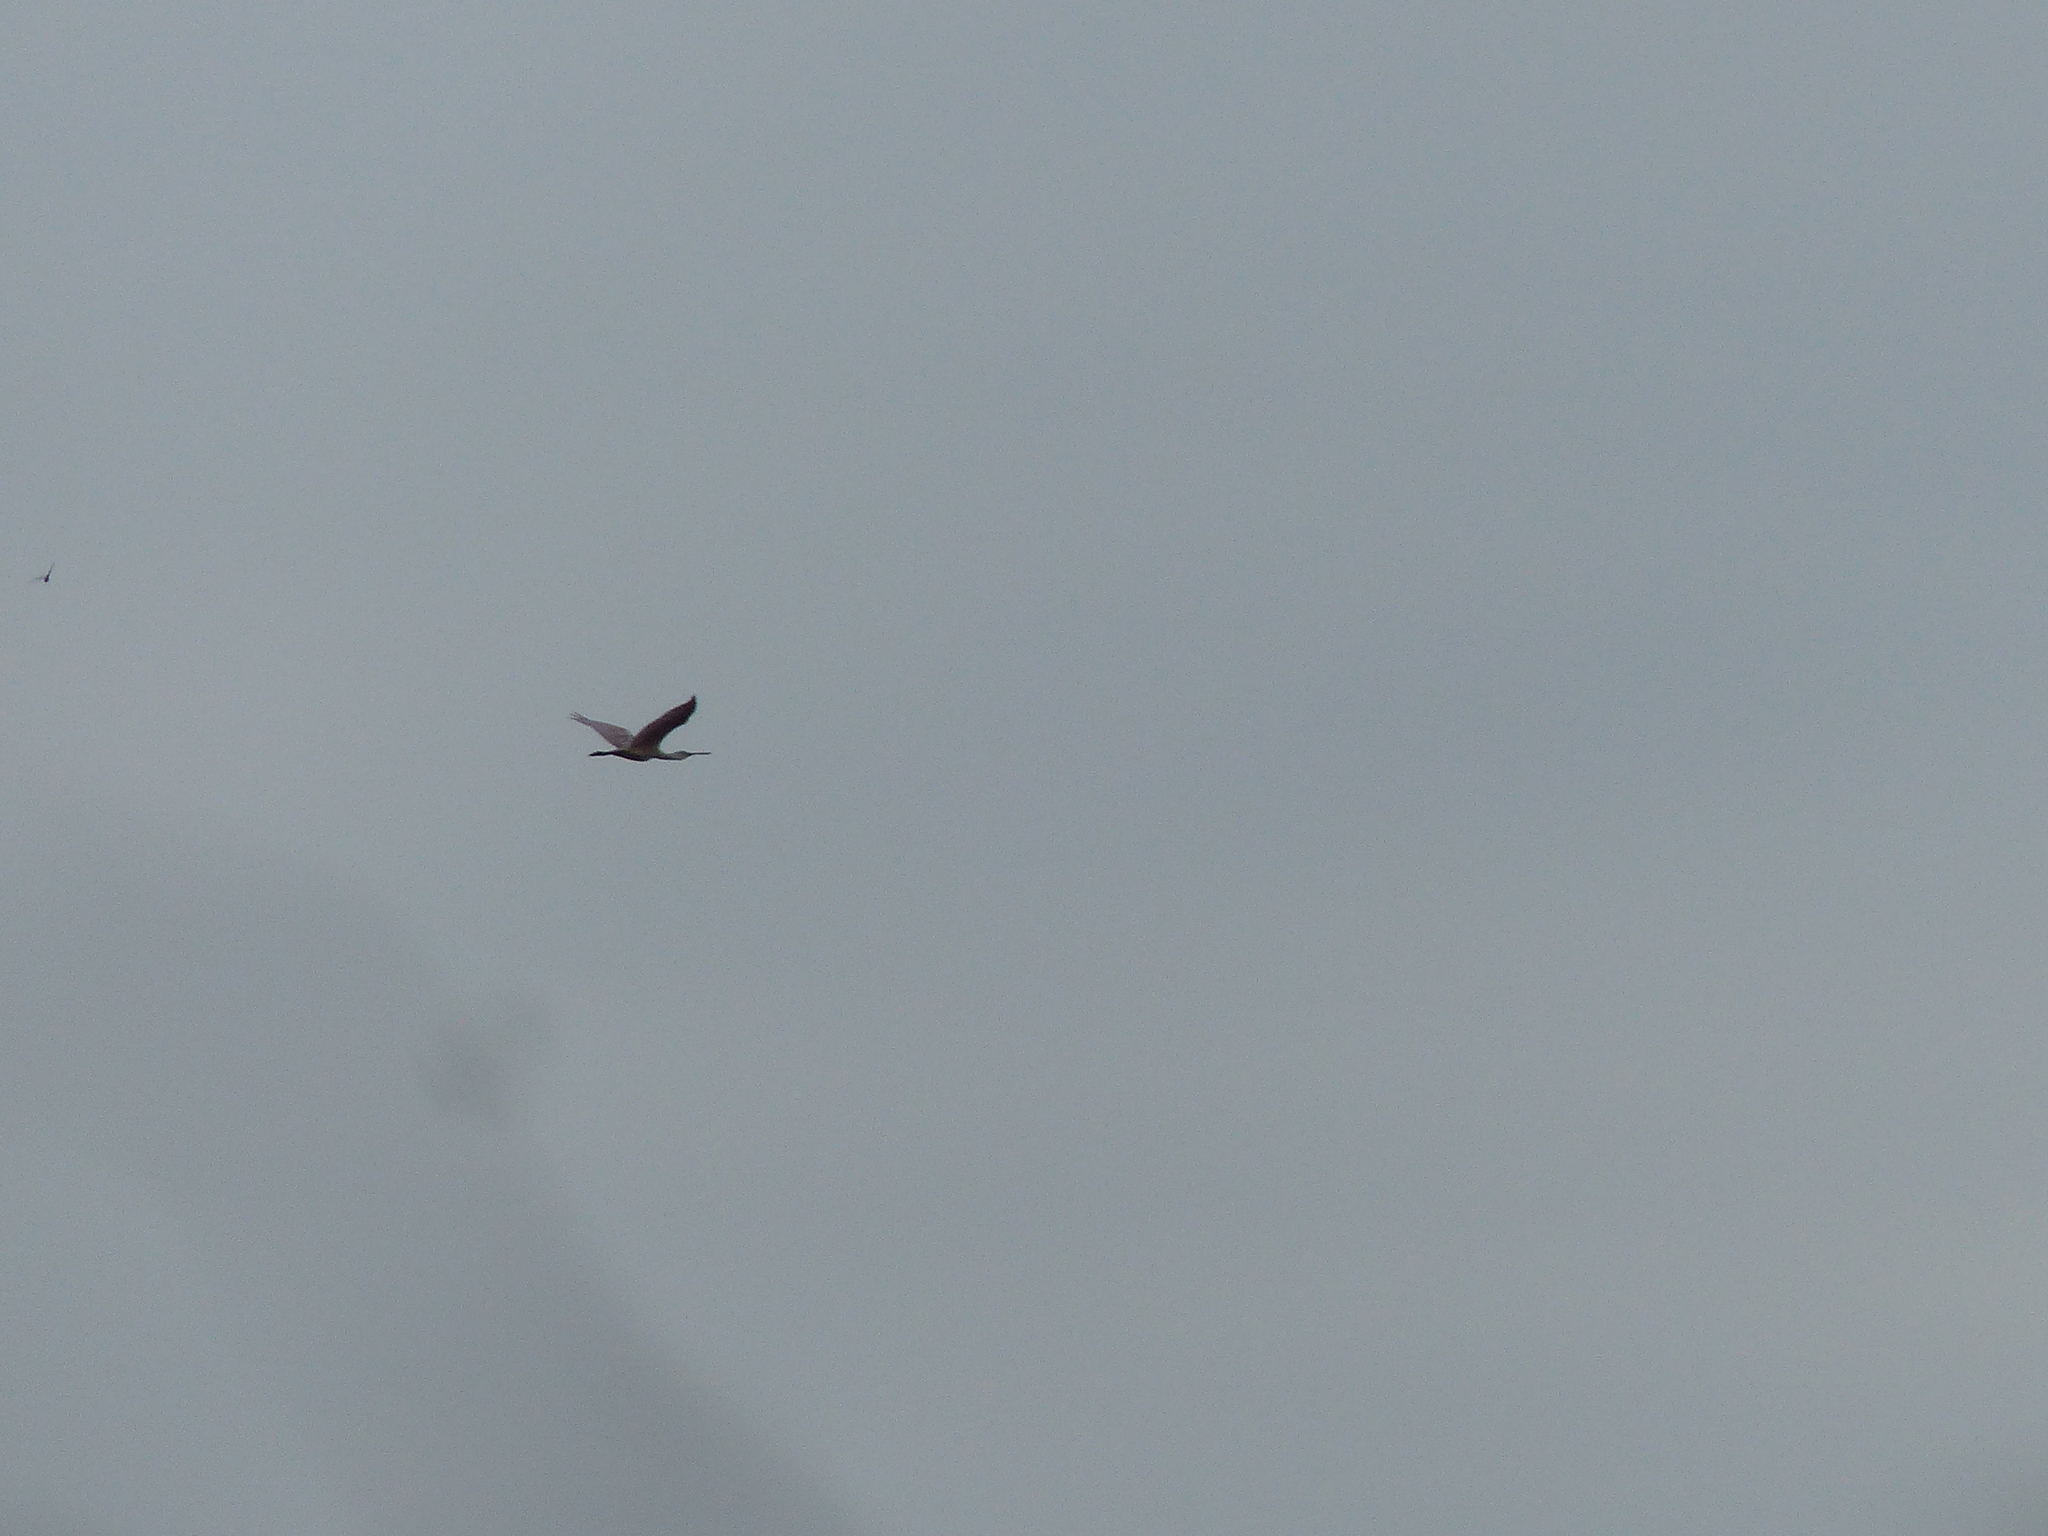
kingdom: Animalia
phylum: Chordata
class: Aves
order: Pelecaniformes
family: Threskiornithidae
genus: Platalea
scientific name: Platalea ajaja
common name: Roseate spoonbill
